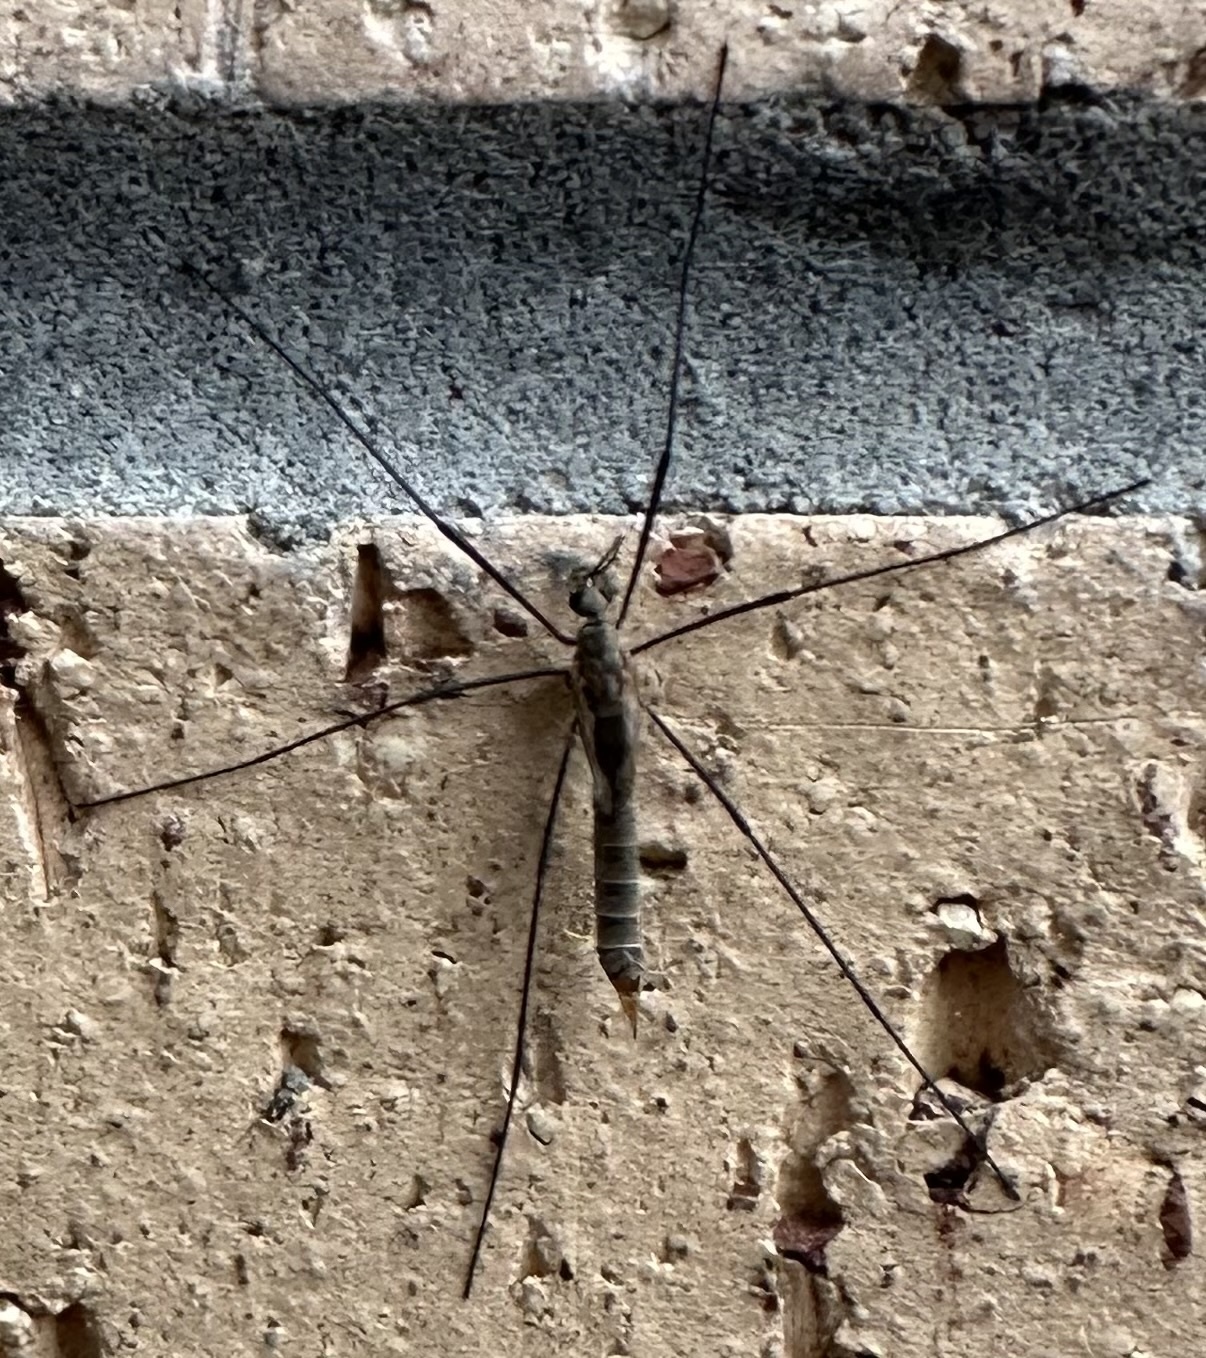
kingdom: Animalia
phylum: Arthropoda
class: Insecta
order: Diptera
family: Tipulidae
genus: Tipula
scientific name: Tipula pagana
